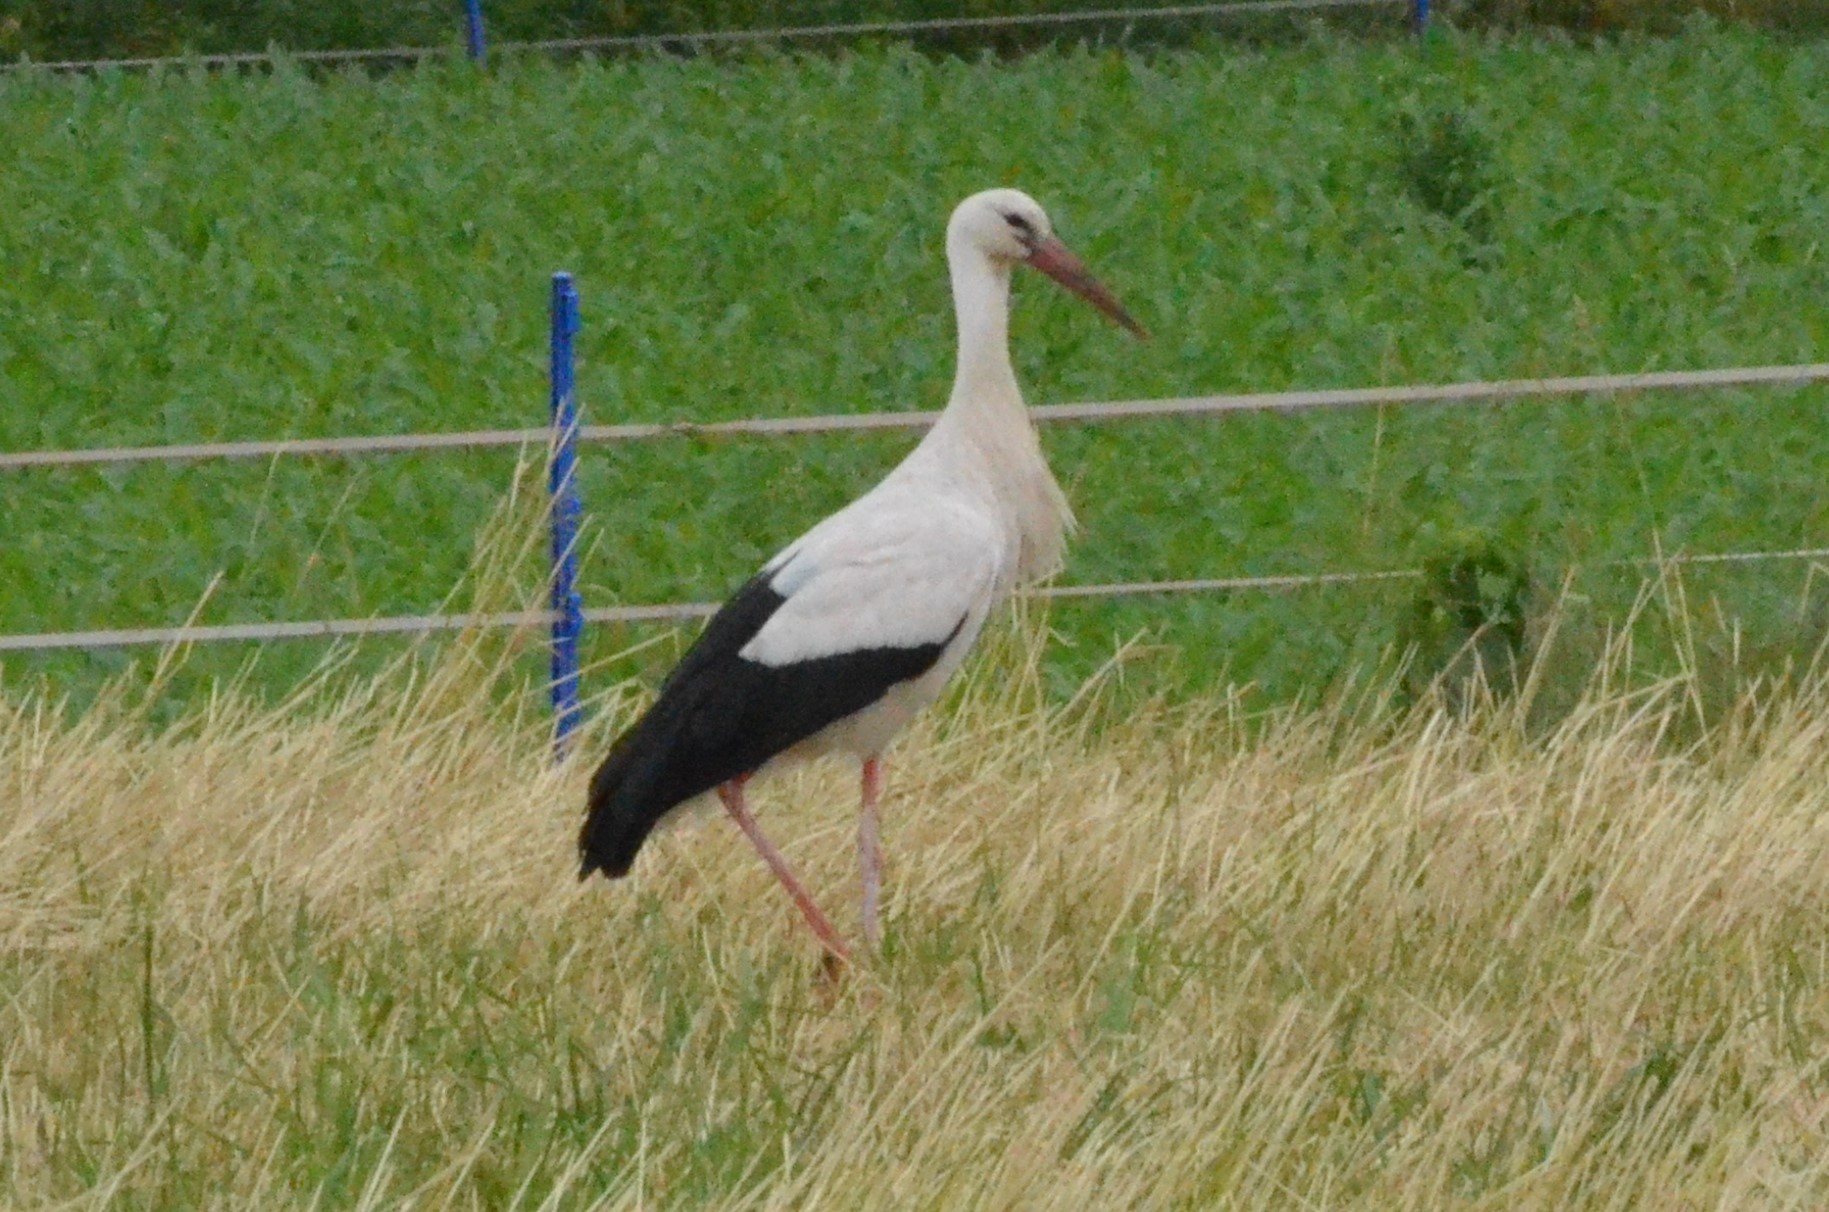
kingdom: Animalia
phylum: Chordata
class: Aves
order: Ciconiiformes
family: Ciconiidae
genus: Ciconia
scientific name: Ciconia ciconia
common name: White stork
